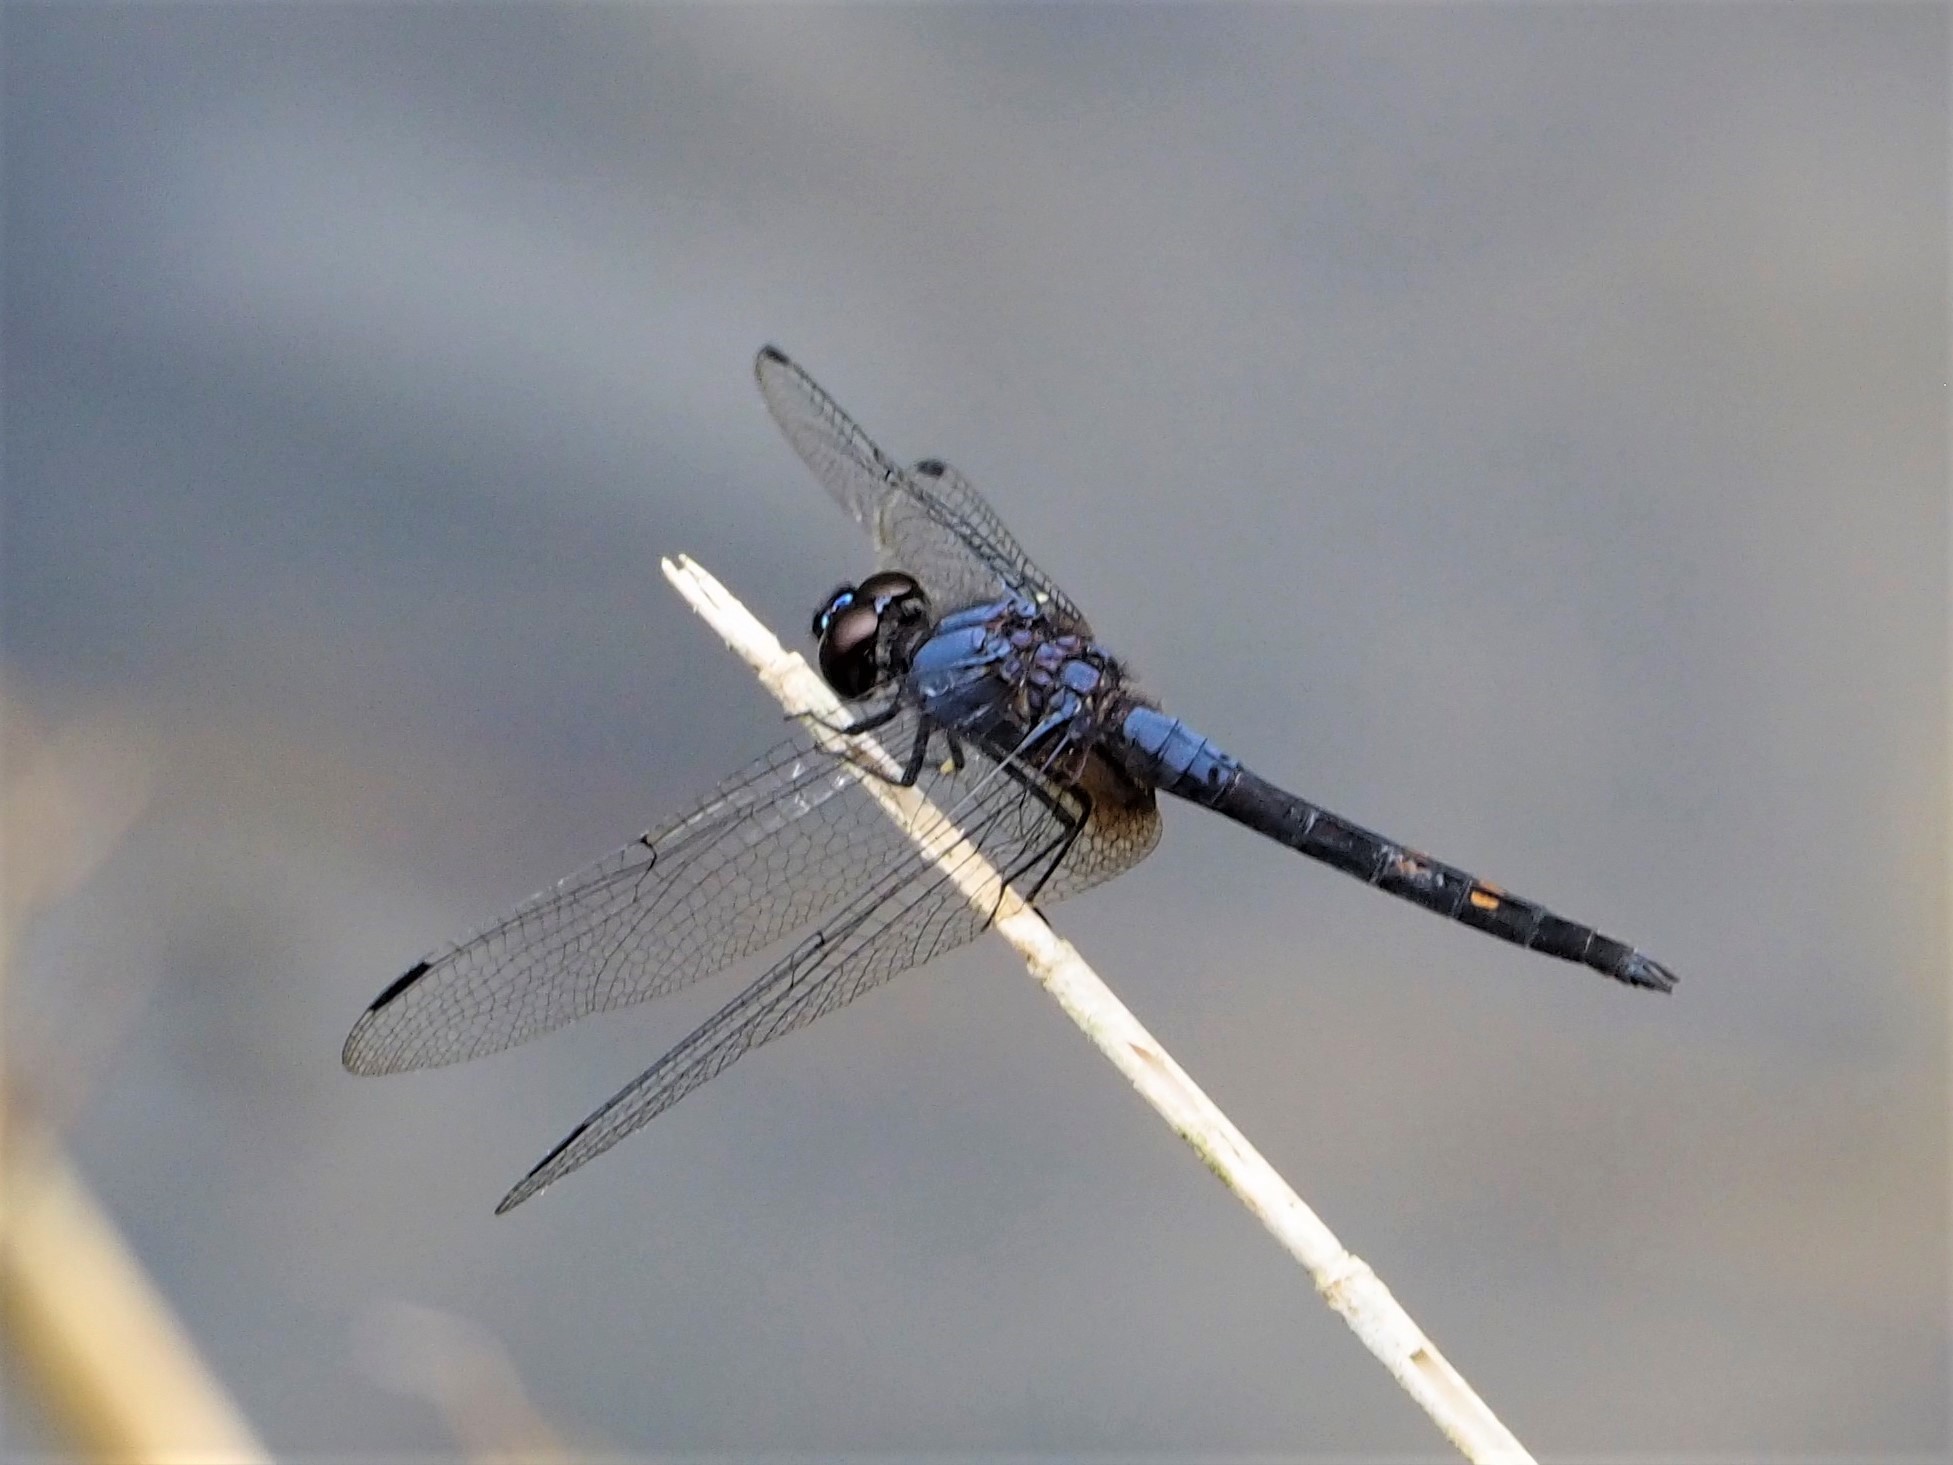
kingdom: Animalia
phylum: Arthropoda
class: Insecta
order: Odonata
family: Libellulidae
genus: Trithemis
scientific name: Trithemis festiva
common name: Indigo dropwing
